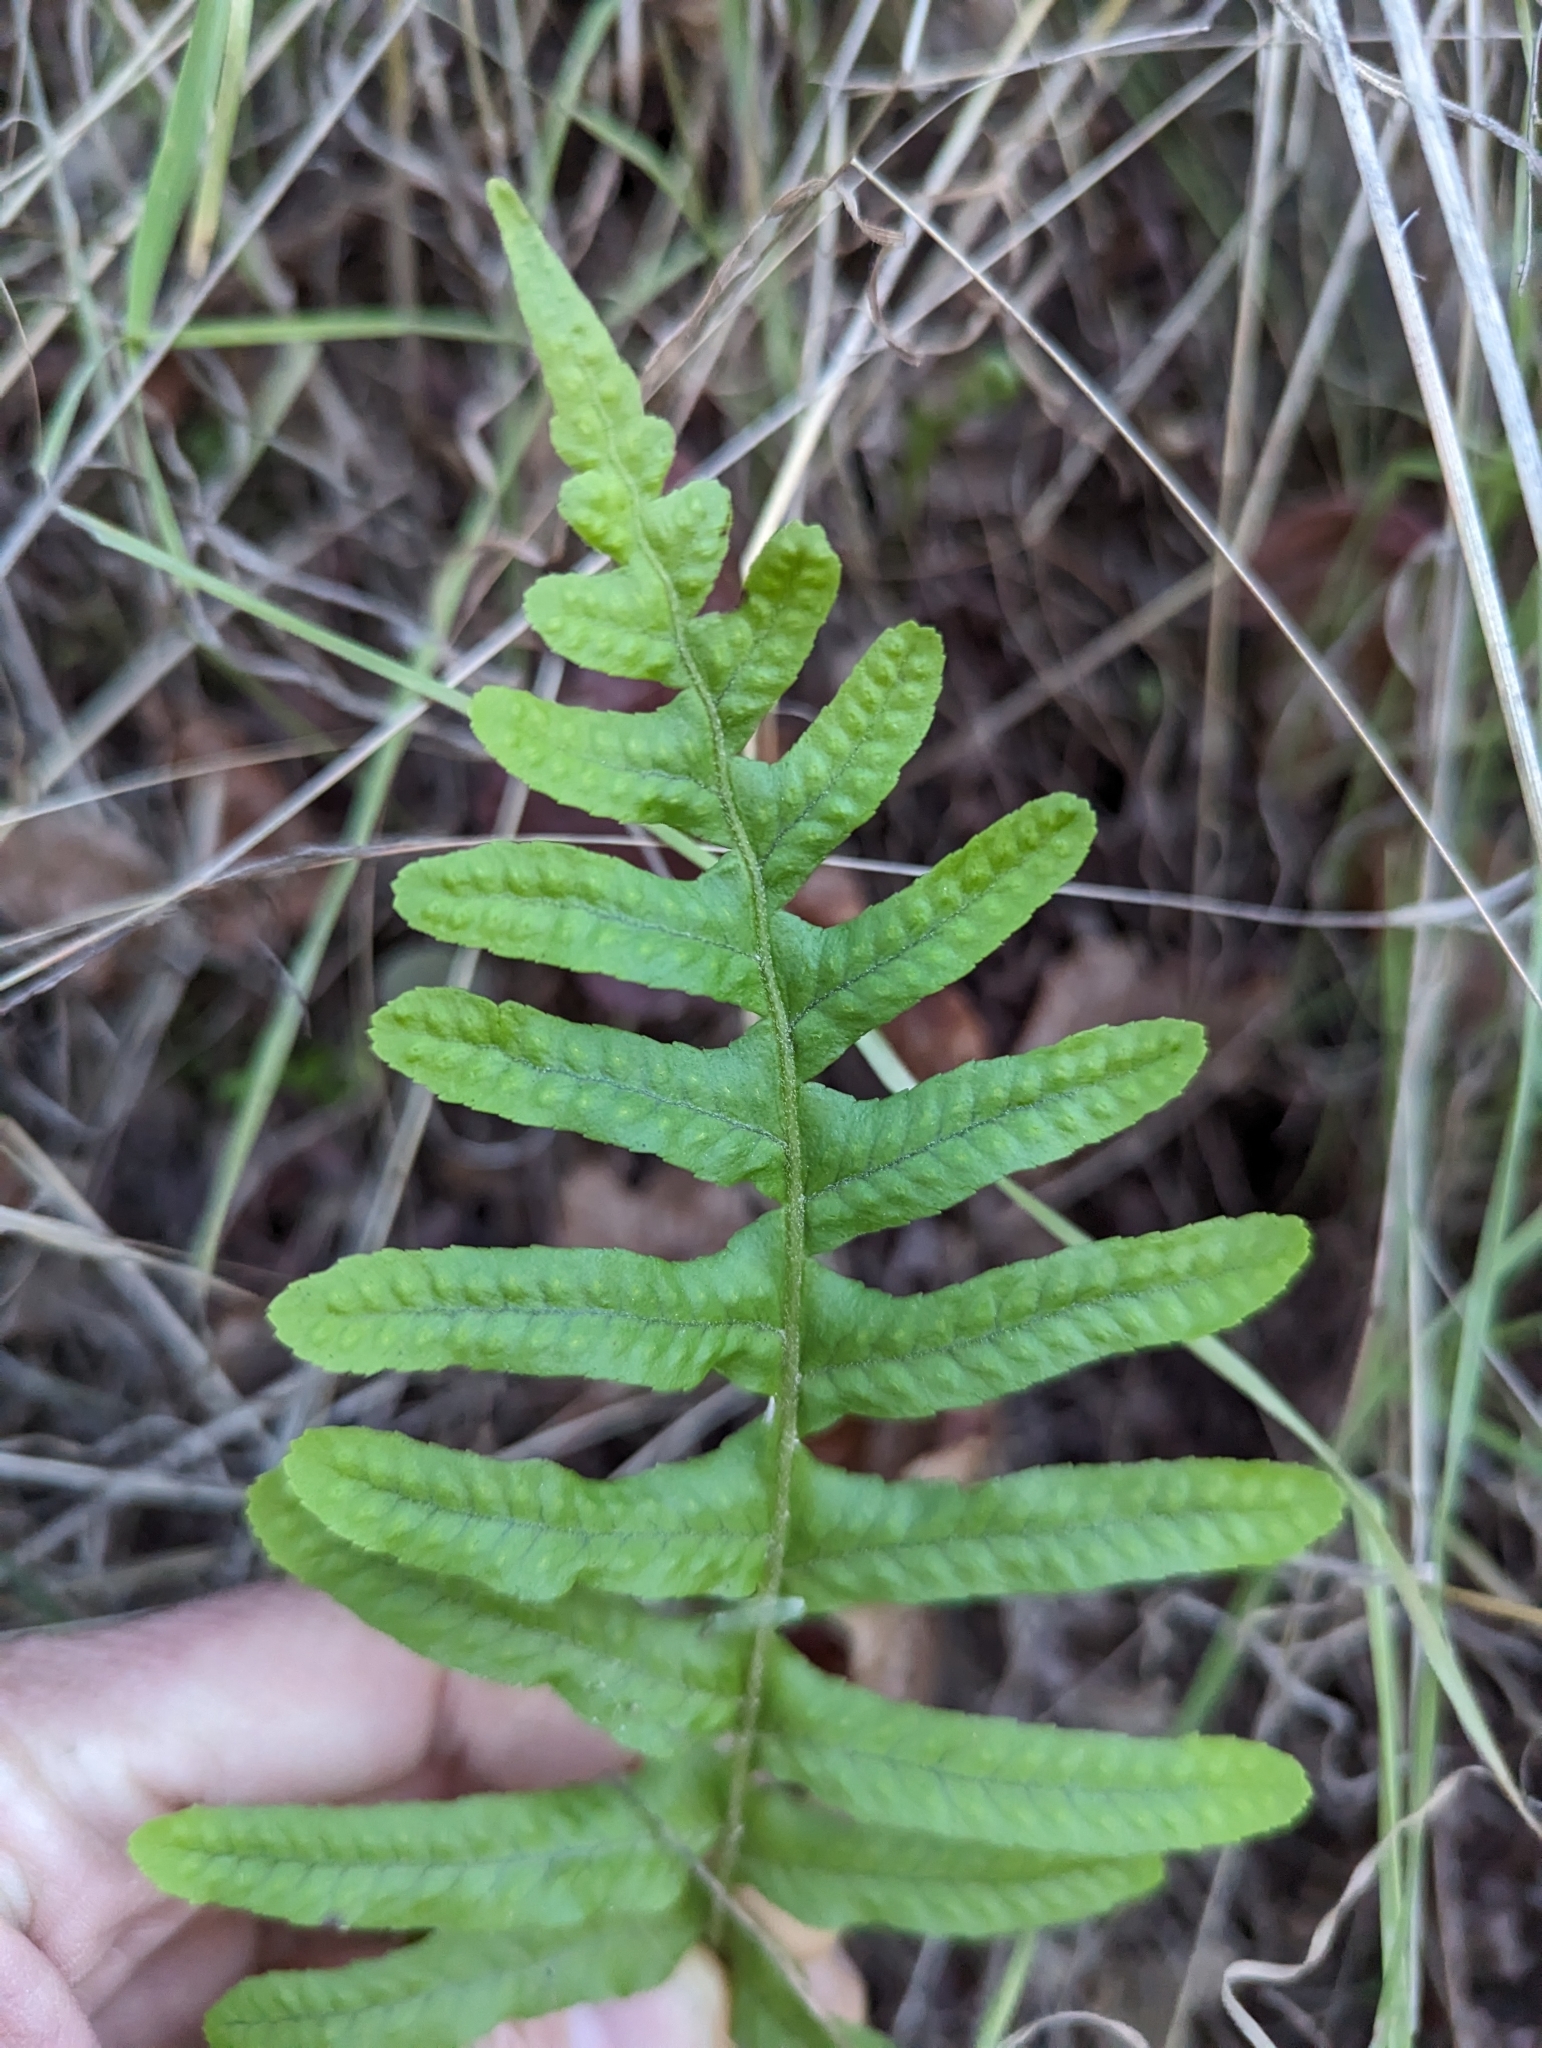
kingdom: Plantae
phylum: Tracheophyta
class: Polypodiopsida
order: Polypodiales
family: Polypodiaceae
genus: Polypodium
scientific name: Polypodium californicum
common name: California polypody
